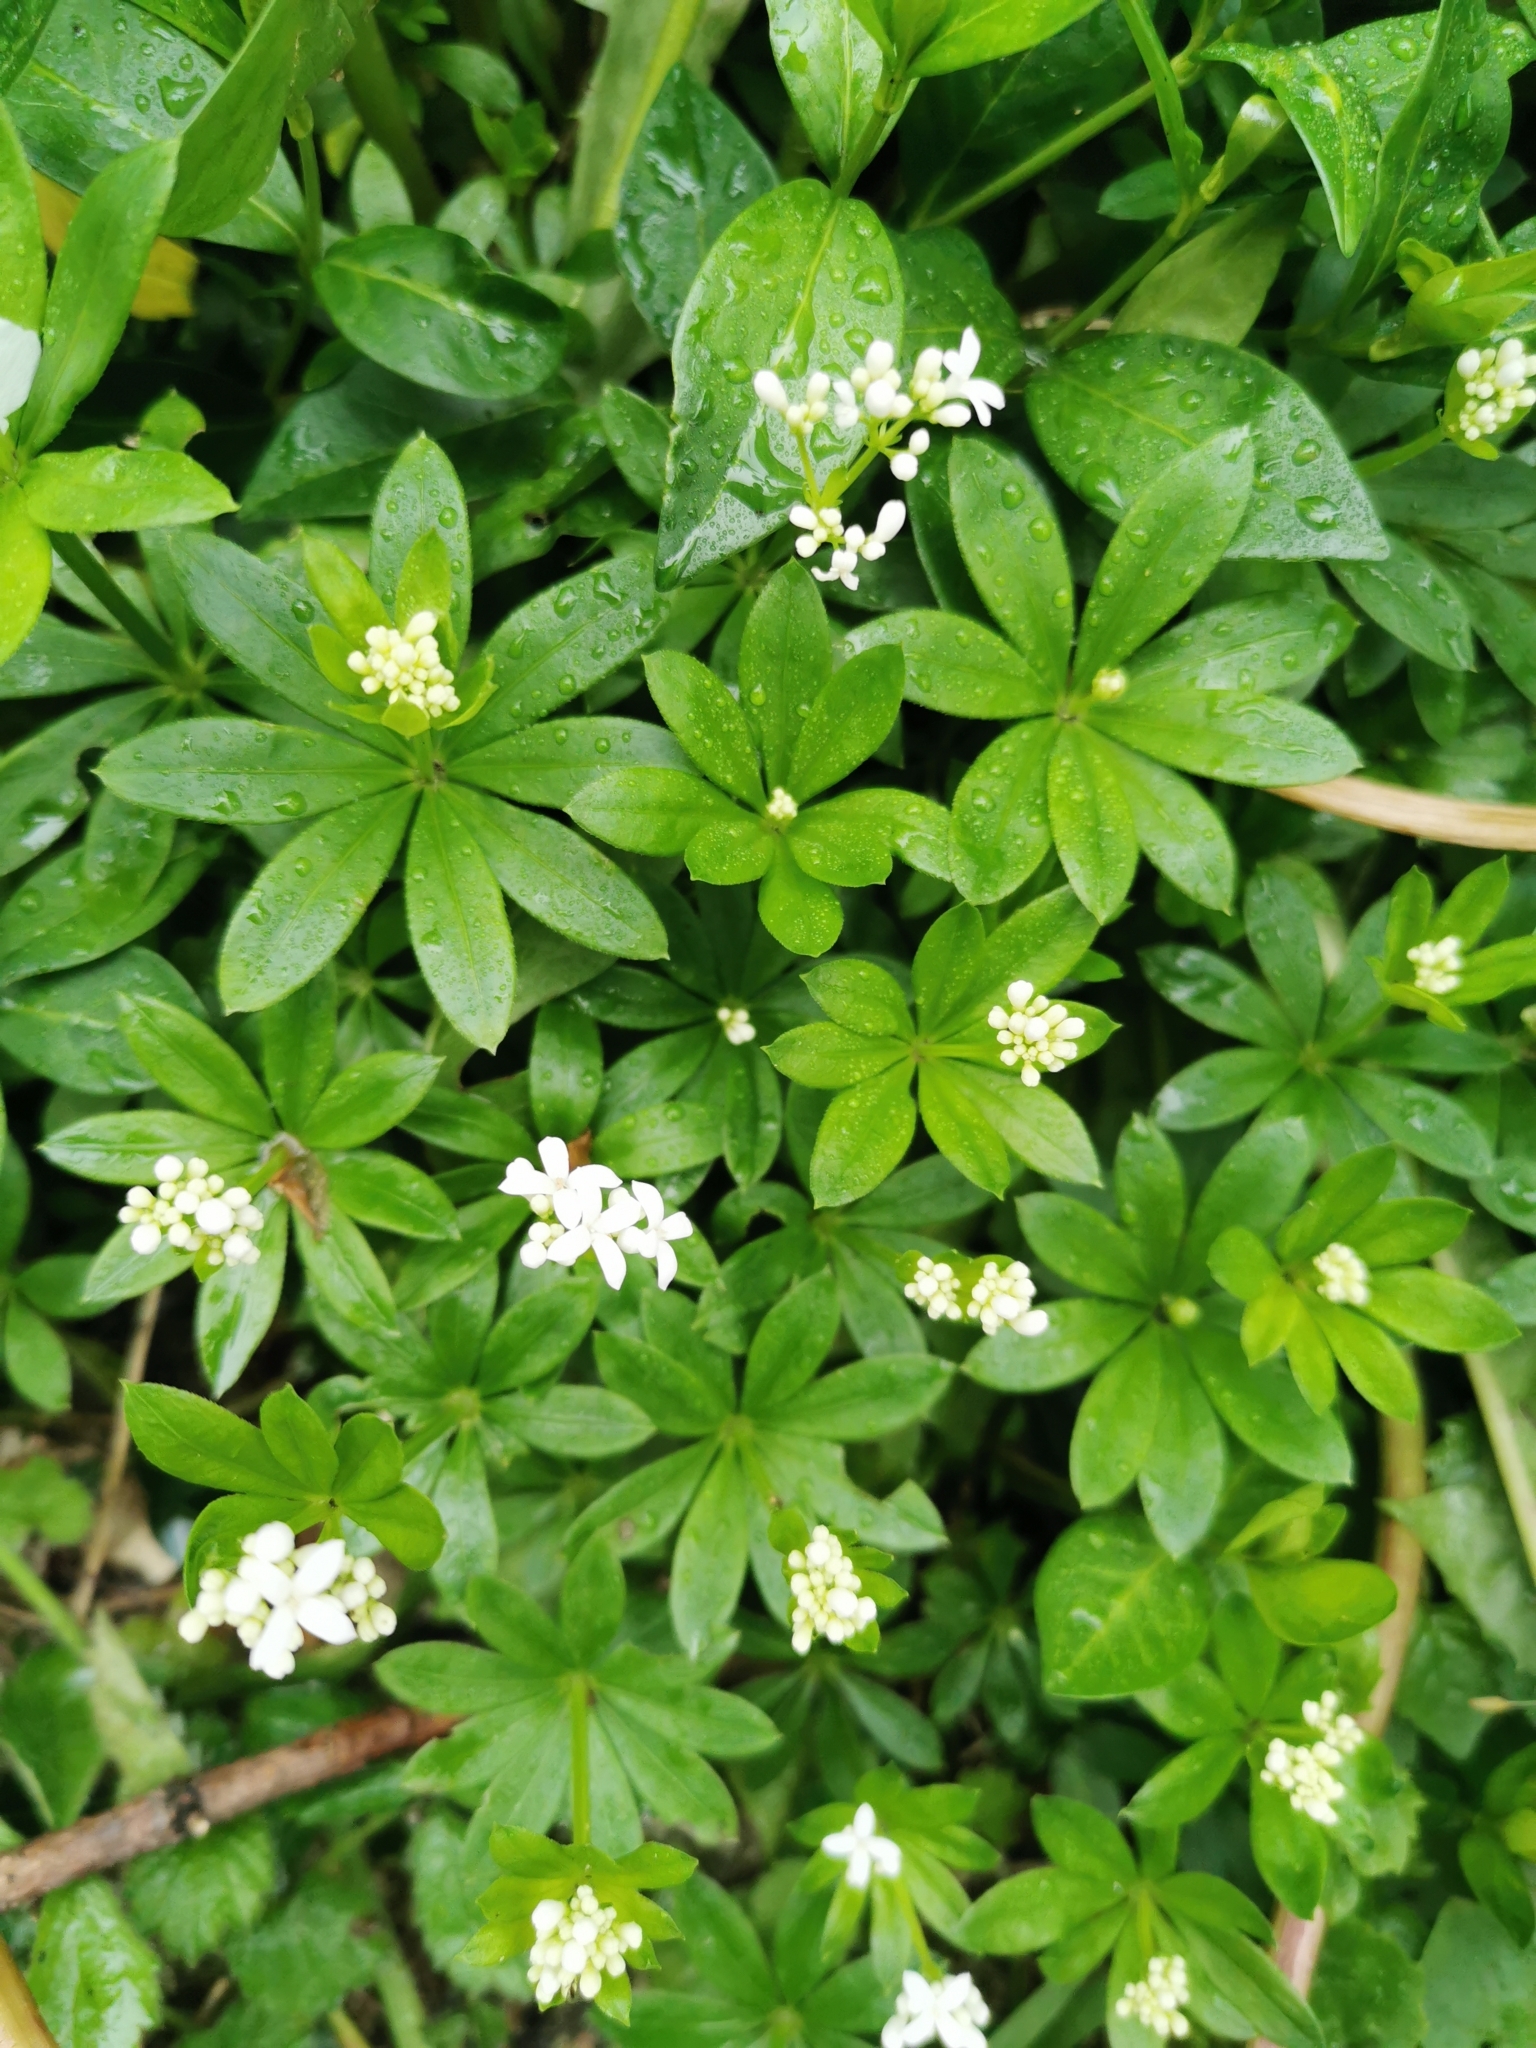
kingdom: Plantae
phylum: Tracheophyta
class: Magnoliopsida
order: Gentianales
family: Rubiaceae
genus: Galium
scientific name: Galium odoratum
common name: Sweet woodruff
